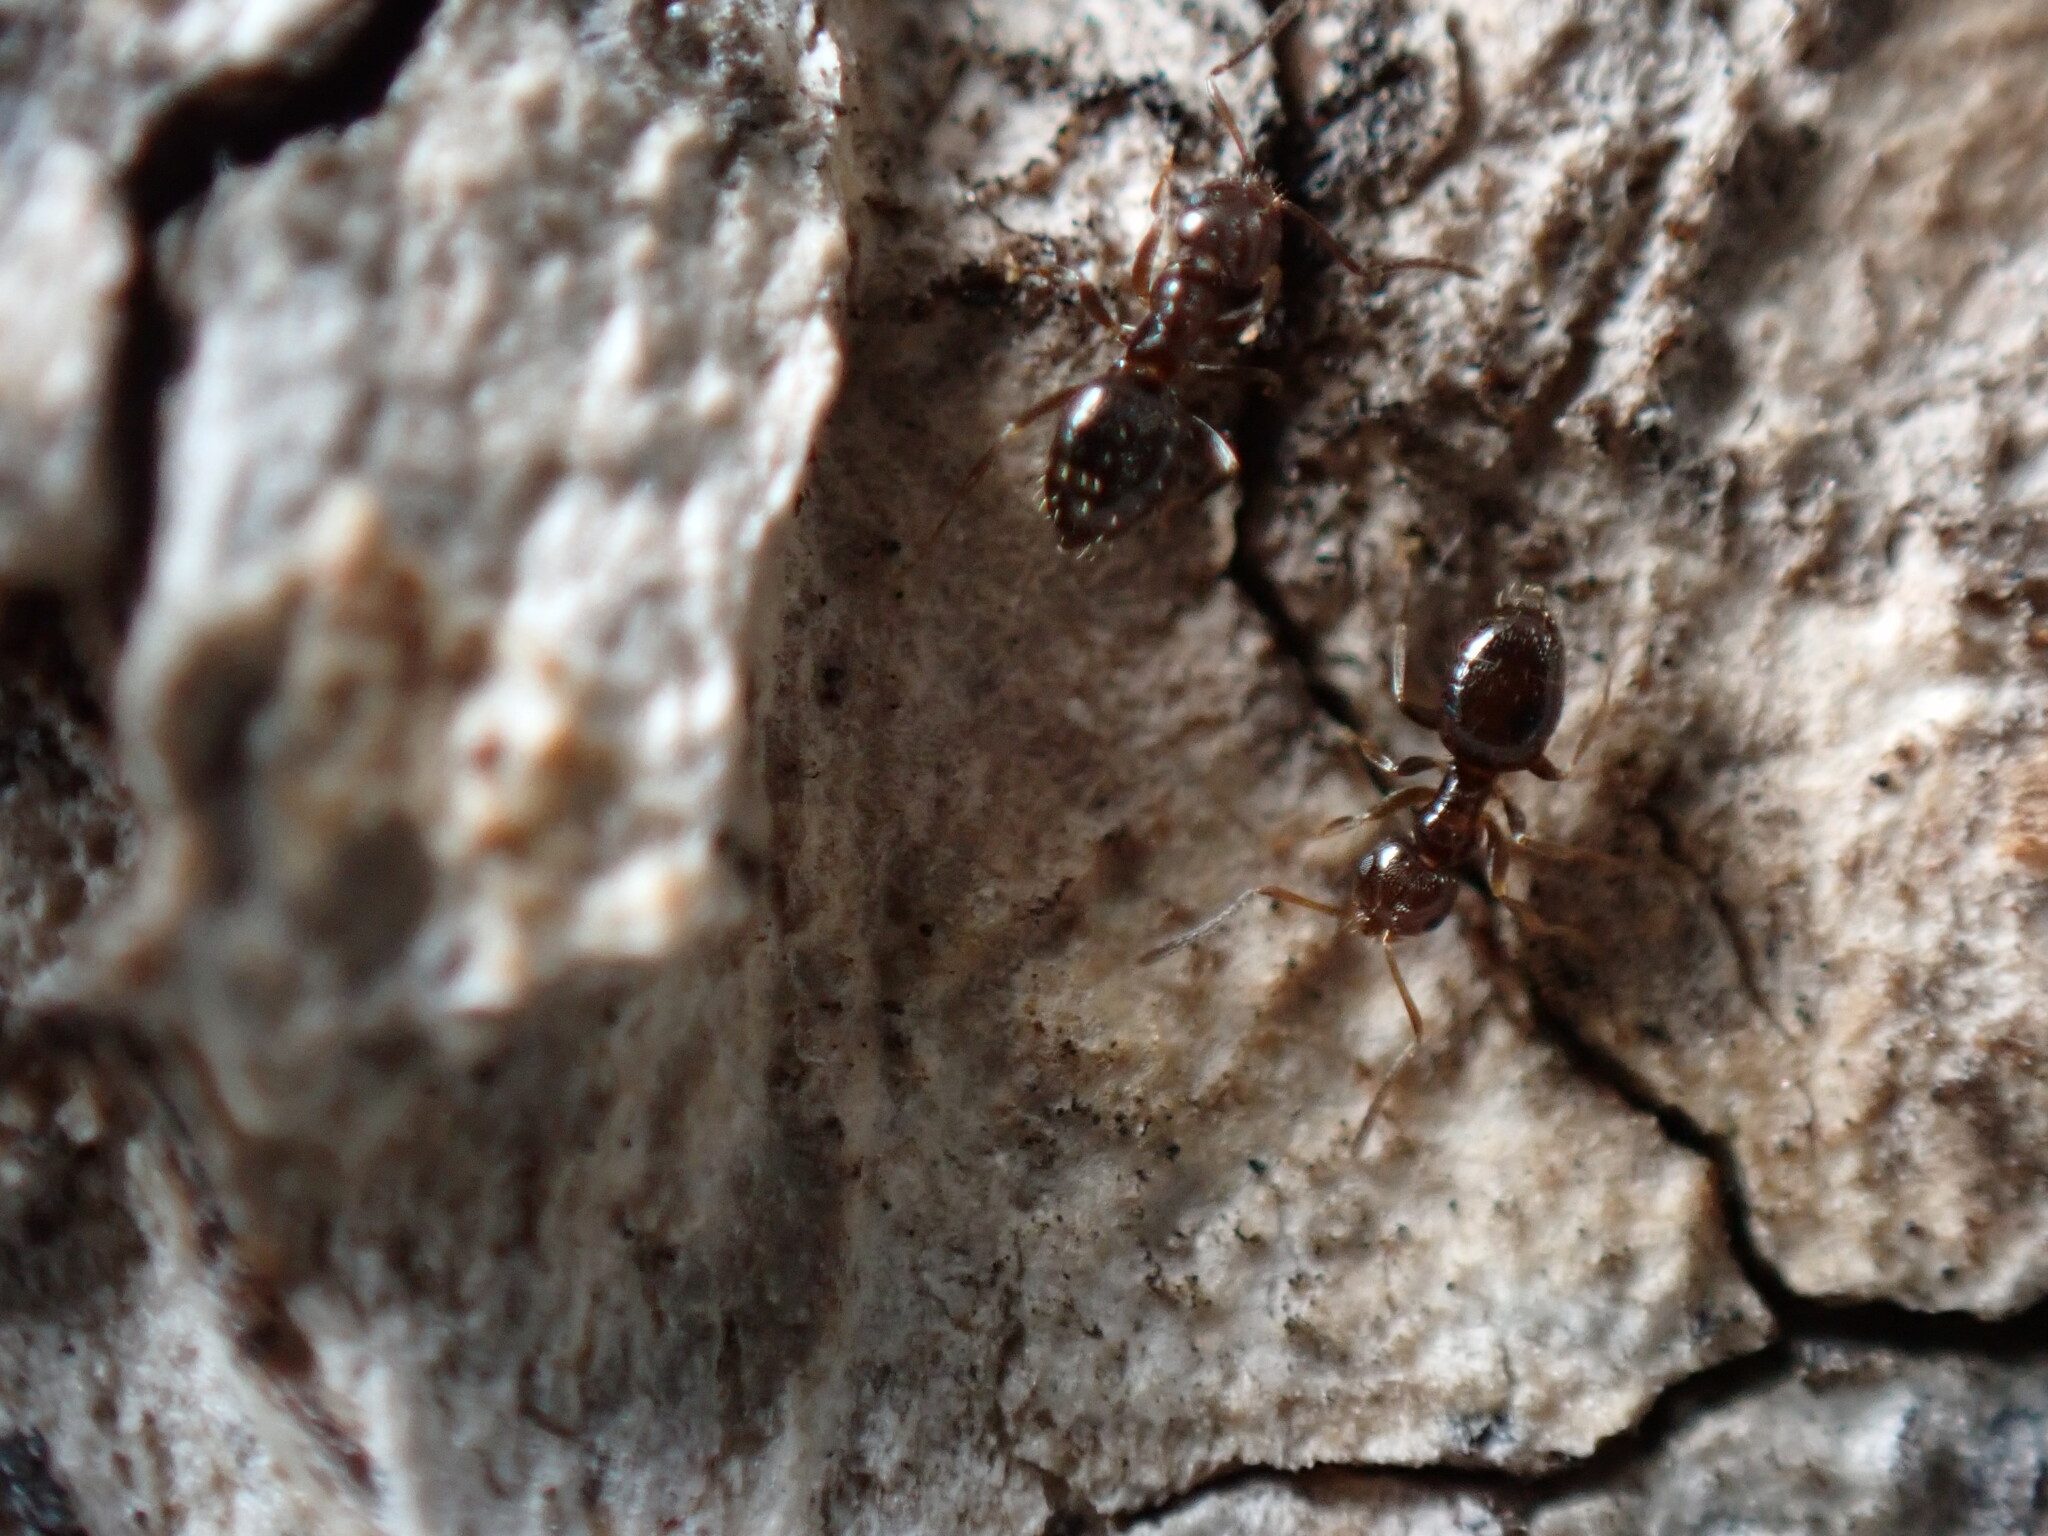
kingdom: Animalia
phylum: Arthropoda
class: Insecta
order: Hymenoptera
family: Formicidae
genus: Brachymyrmex
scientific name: Brachymyrmex patagonicus
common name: Dark rover ant
